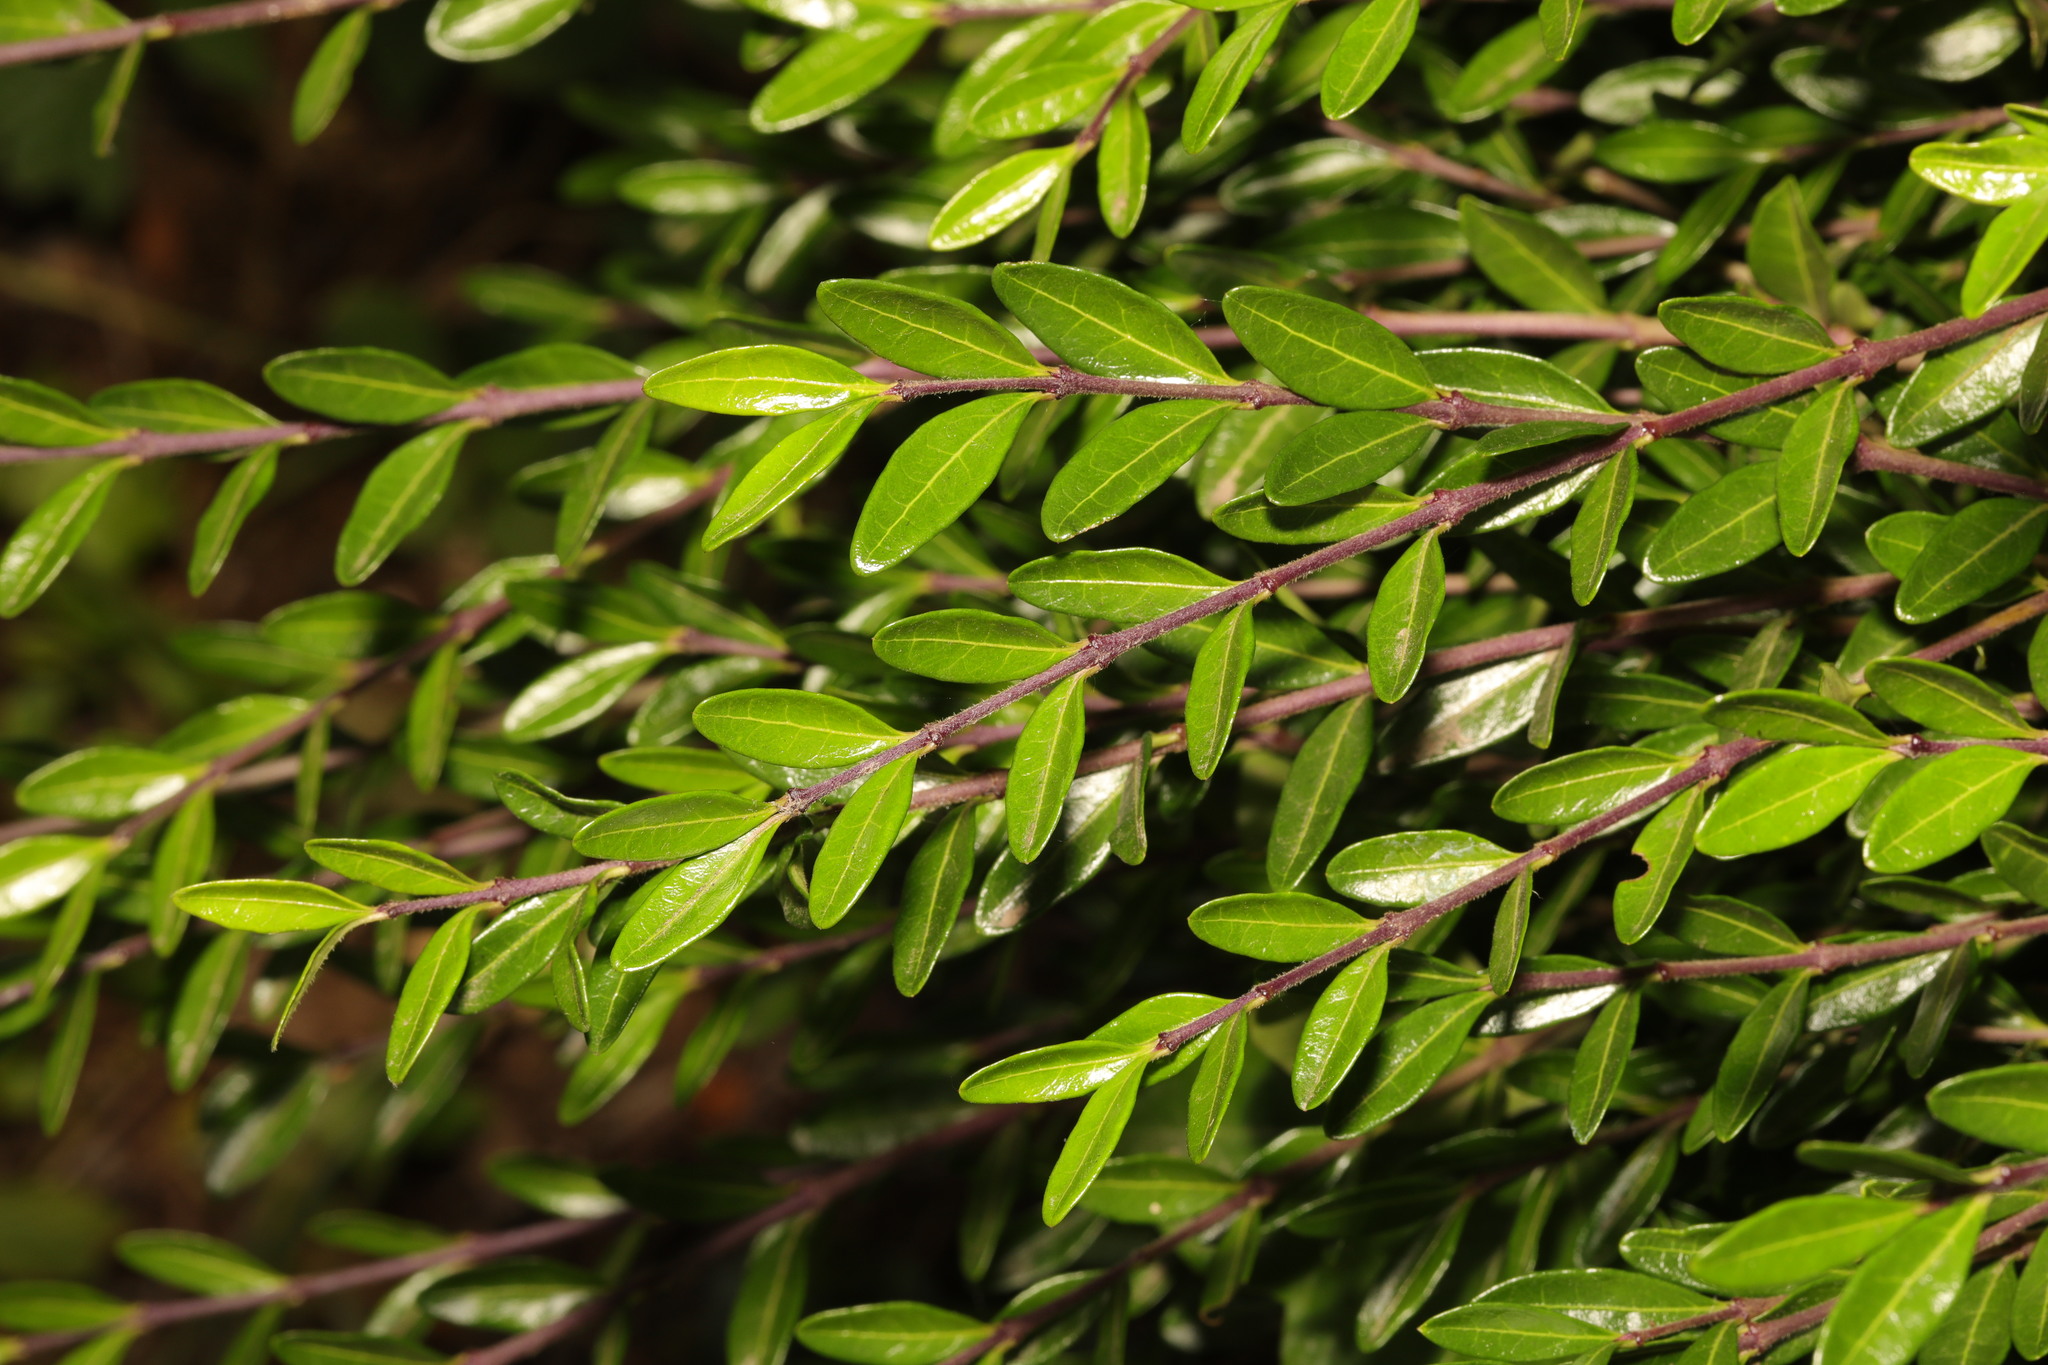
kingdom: Plantae
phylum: Tracheophyta
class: Magnoliopsida
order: Dipsacales
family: Caprifoliaceae
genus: Lonicera
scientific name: Lonicera pileata
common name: Box-leaved honeysuckle
